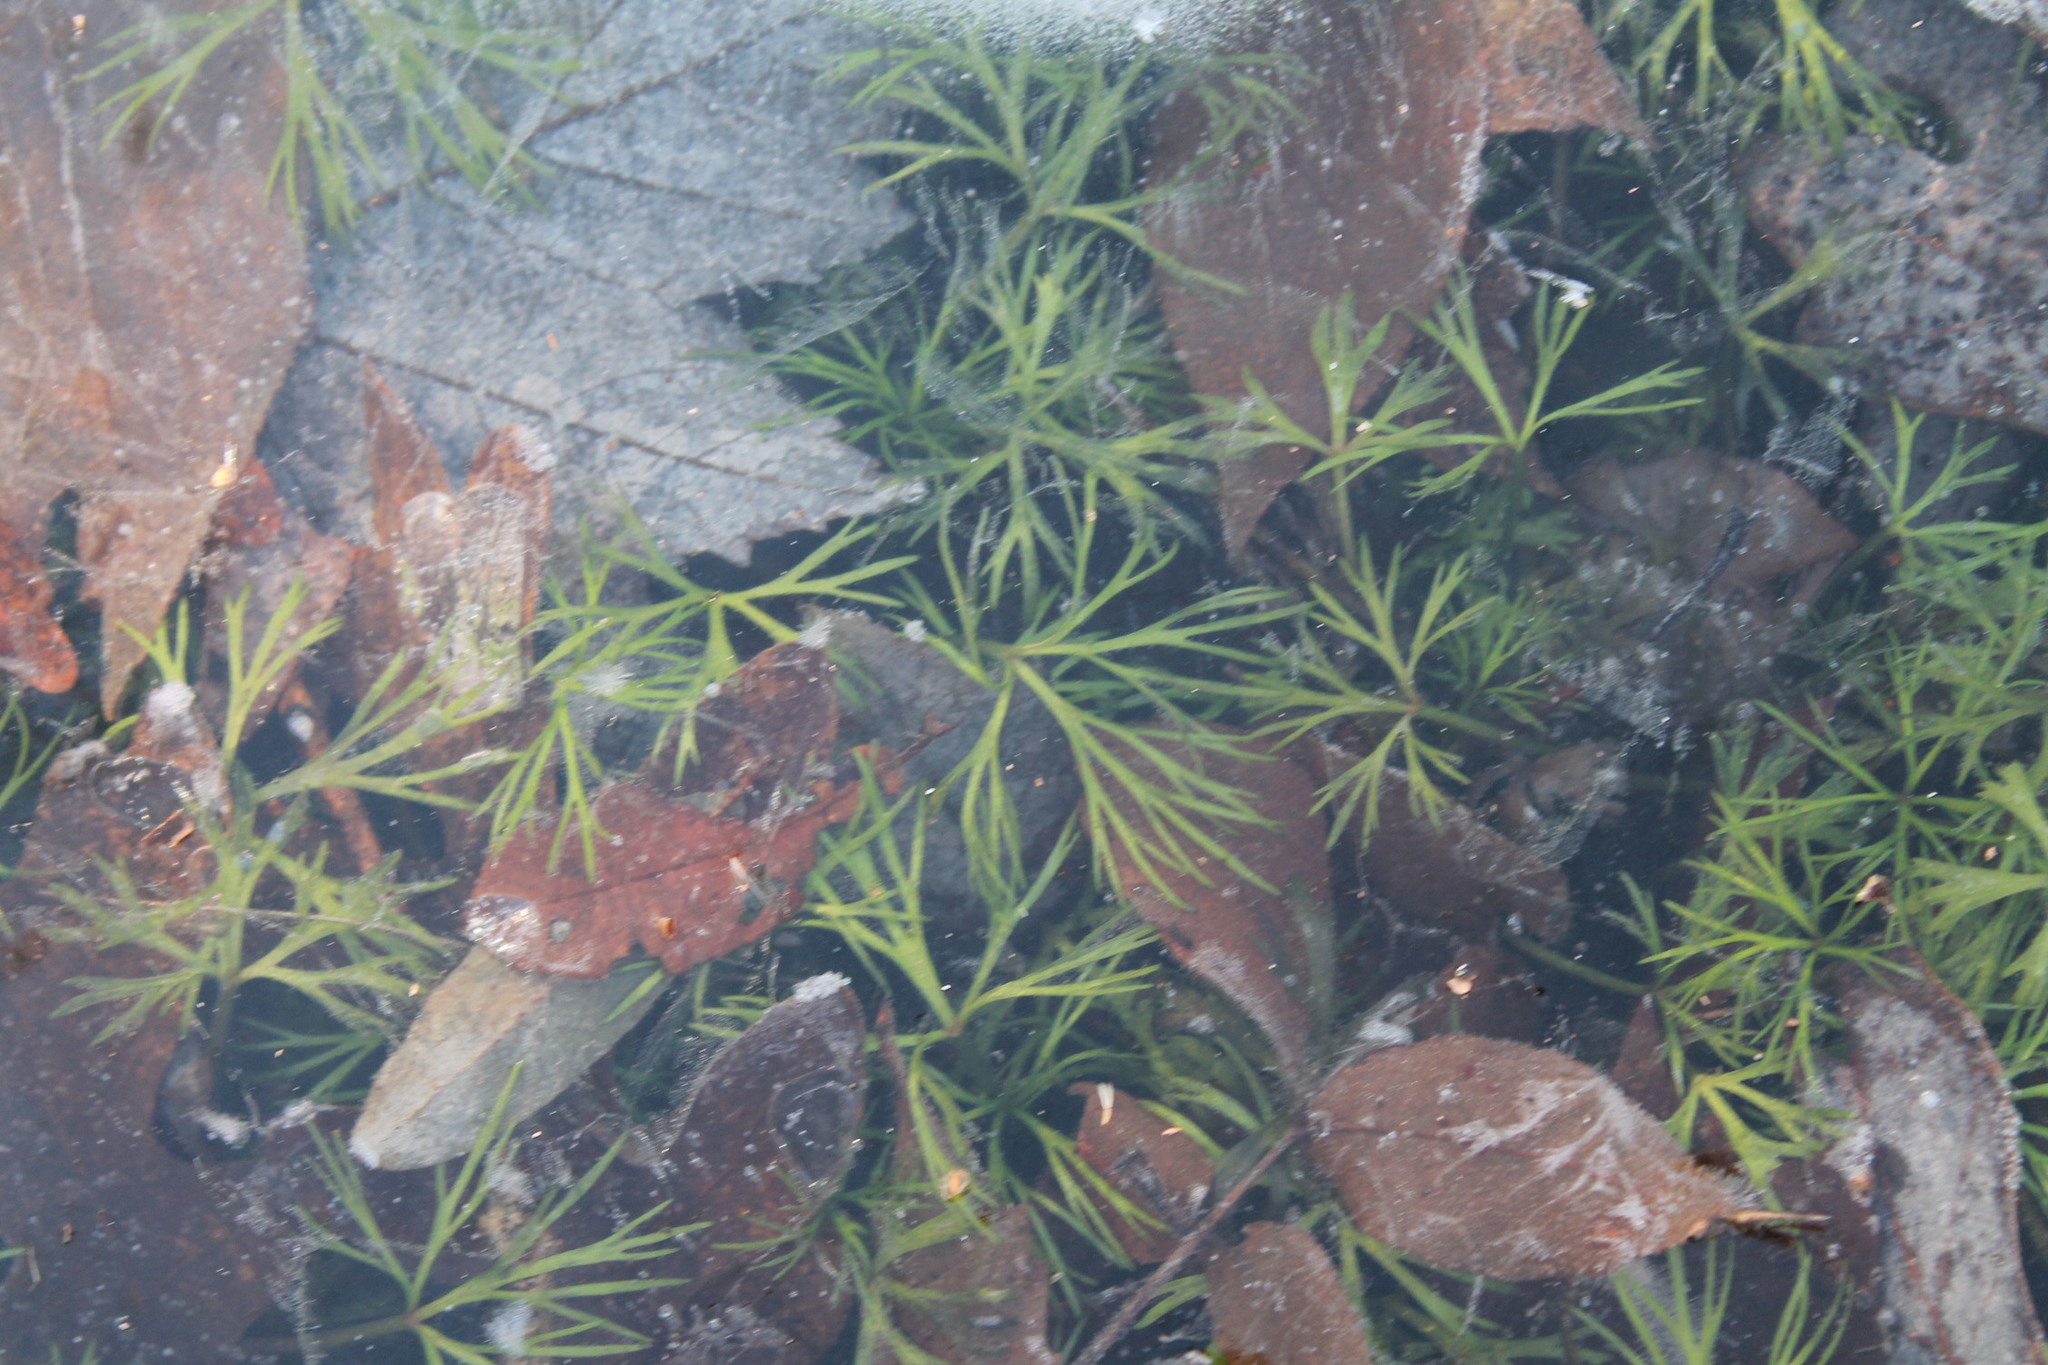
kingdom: Plantae
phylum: Tracheophyta
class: Magnoliopsida
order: Ranunculales
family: Ranunculaceae
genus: Ranunculus
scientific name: Ranunculus flabellaris
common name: Yellow water-crowfoot
